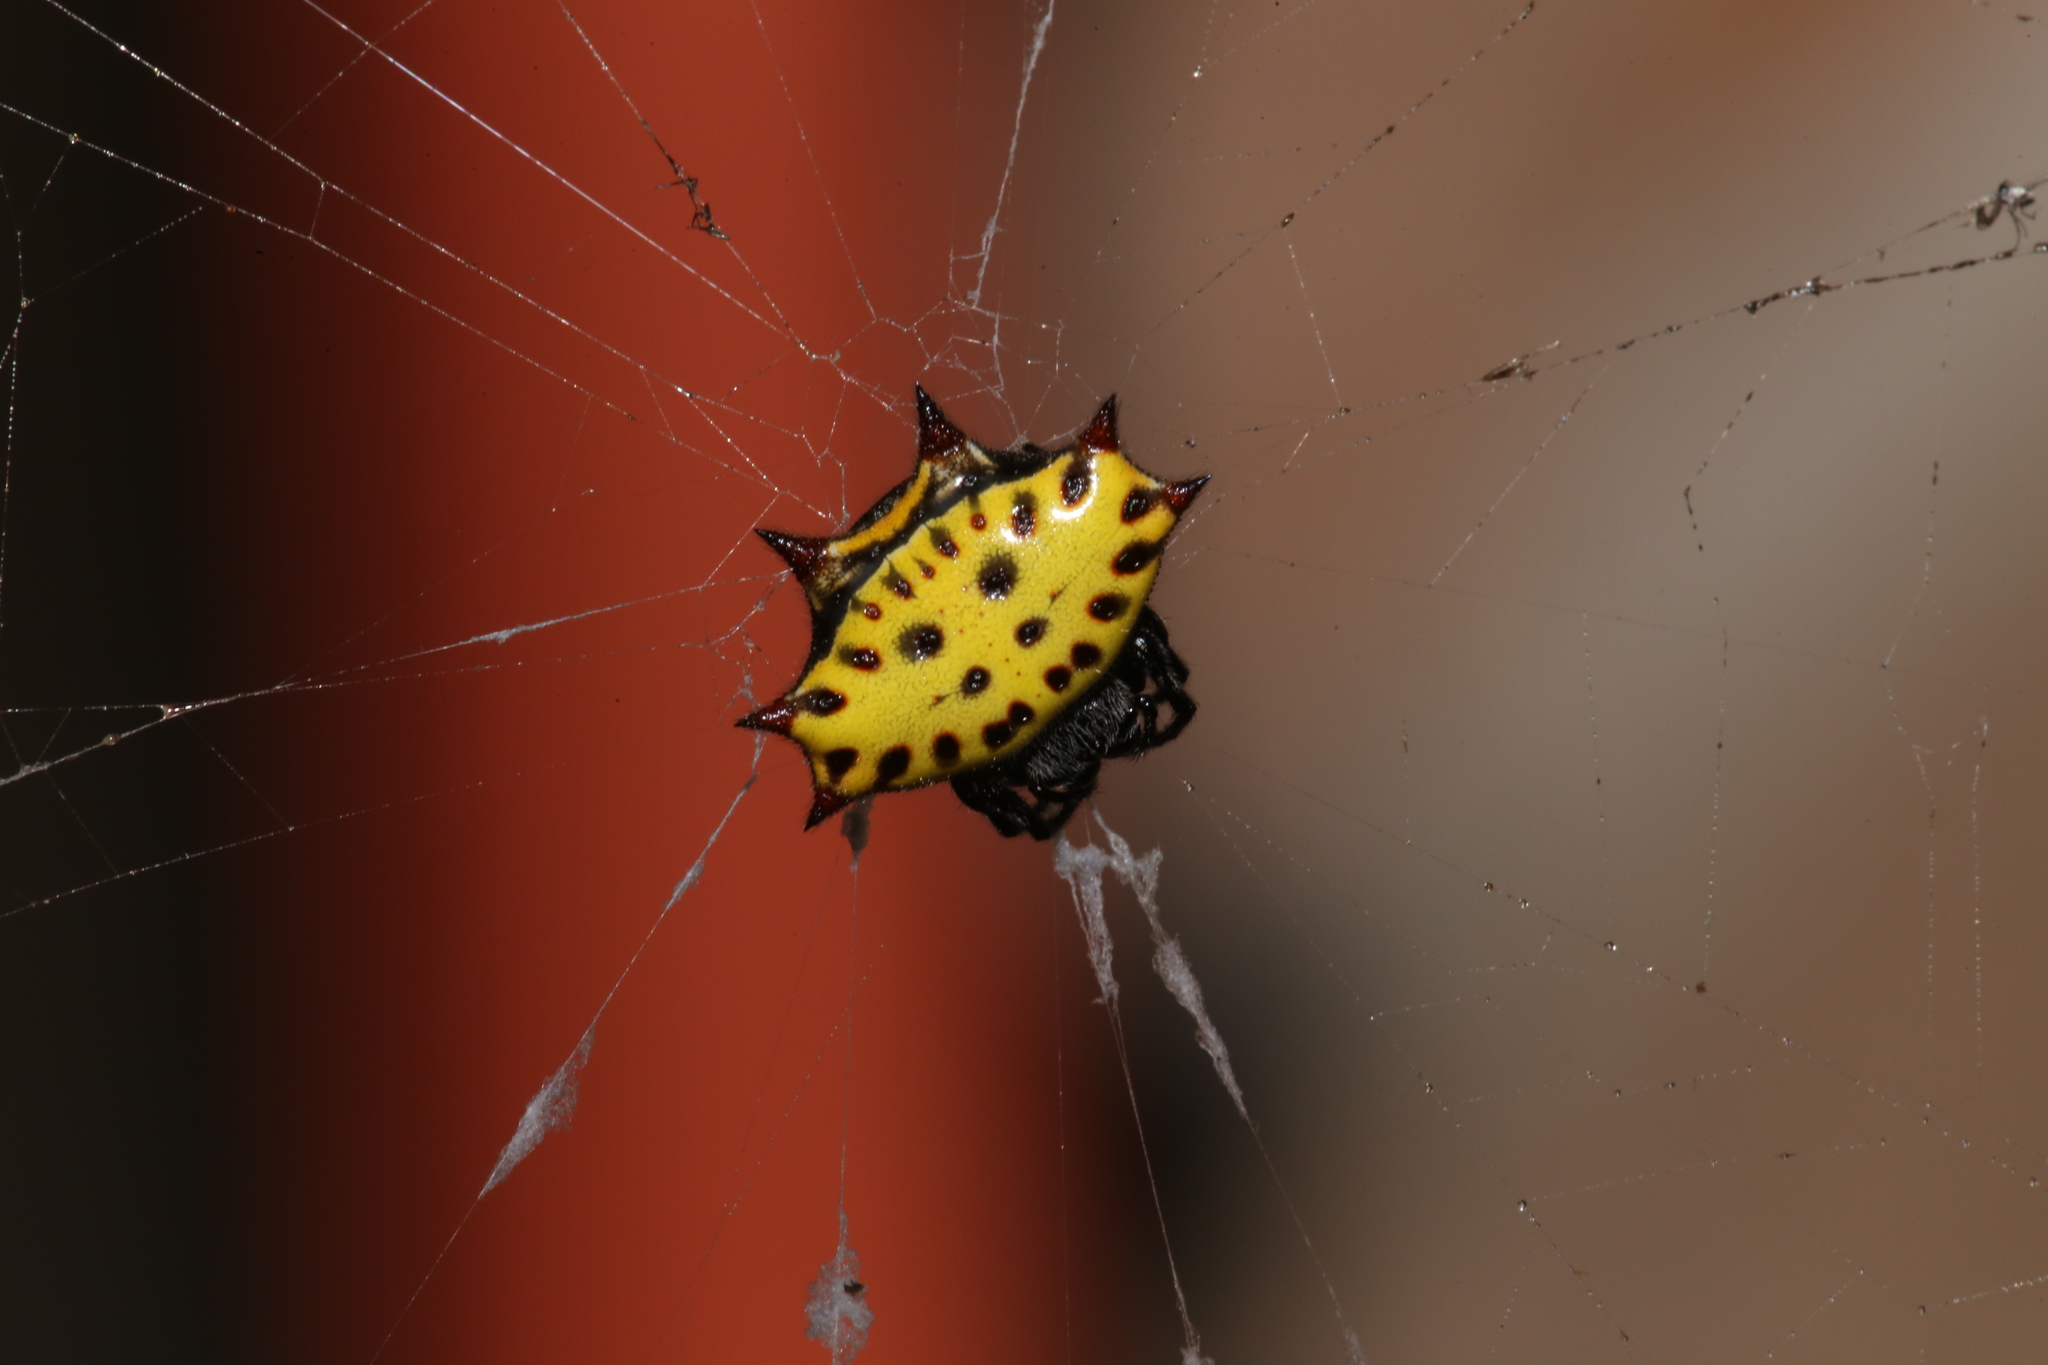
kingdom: Animalia
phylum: Arthropoda
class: Arachnida
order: Araneae
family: Araneidae
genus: Gasteracantha
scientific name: Gasteracantha cancriformis
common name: Orb weavers
